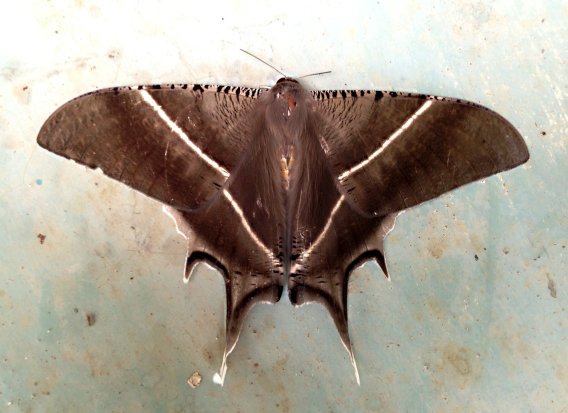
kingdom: Animalia
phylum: Arthropoda
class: Insecta
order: Lepidoptera
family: Uraniidae
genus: Lyssa
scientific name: Lyssa zampa
